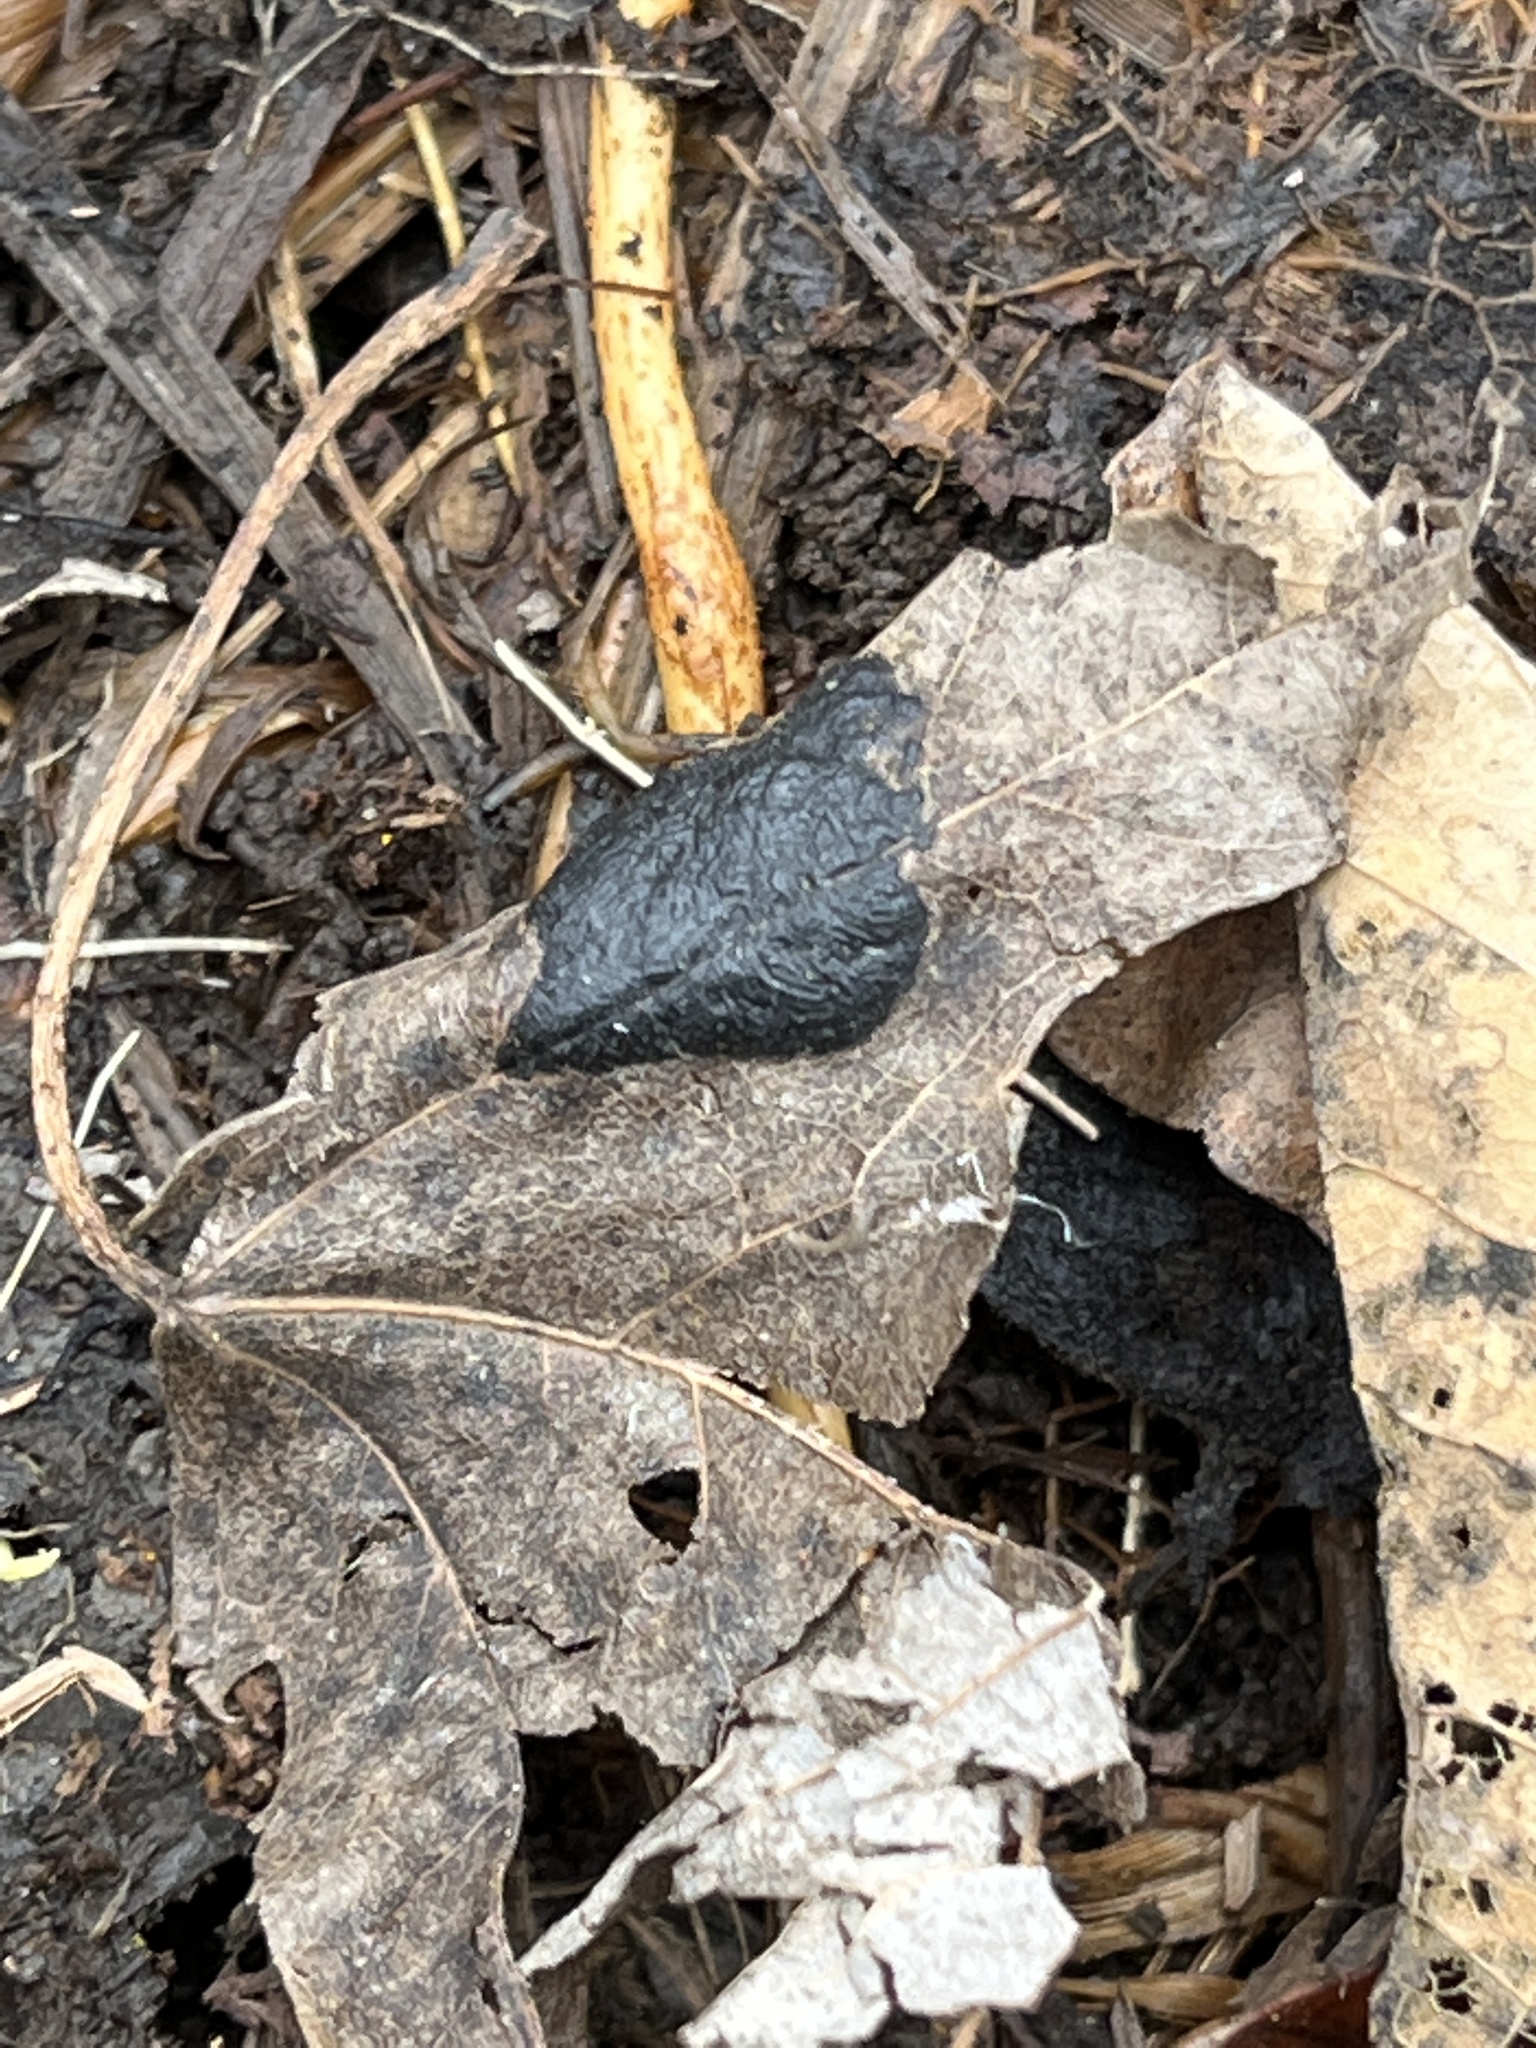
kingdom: Fungi
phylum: Ascomycota
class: Leotiomycetes
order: Rhytismatales
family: Rhytismataceae
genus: Rhytisma
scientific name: Rhytisma americanum
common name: American tar spot
